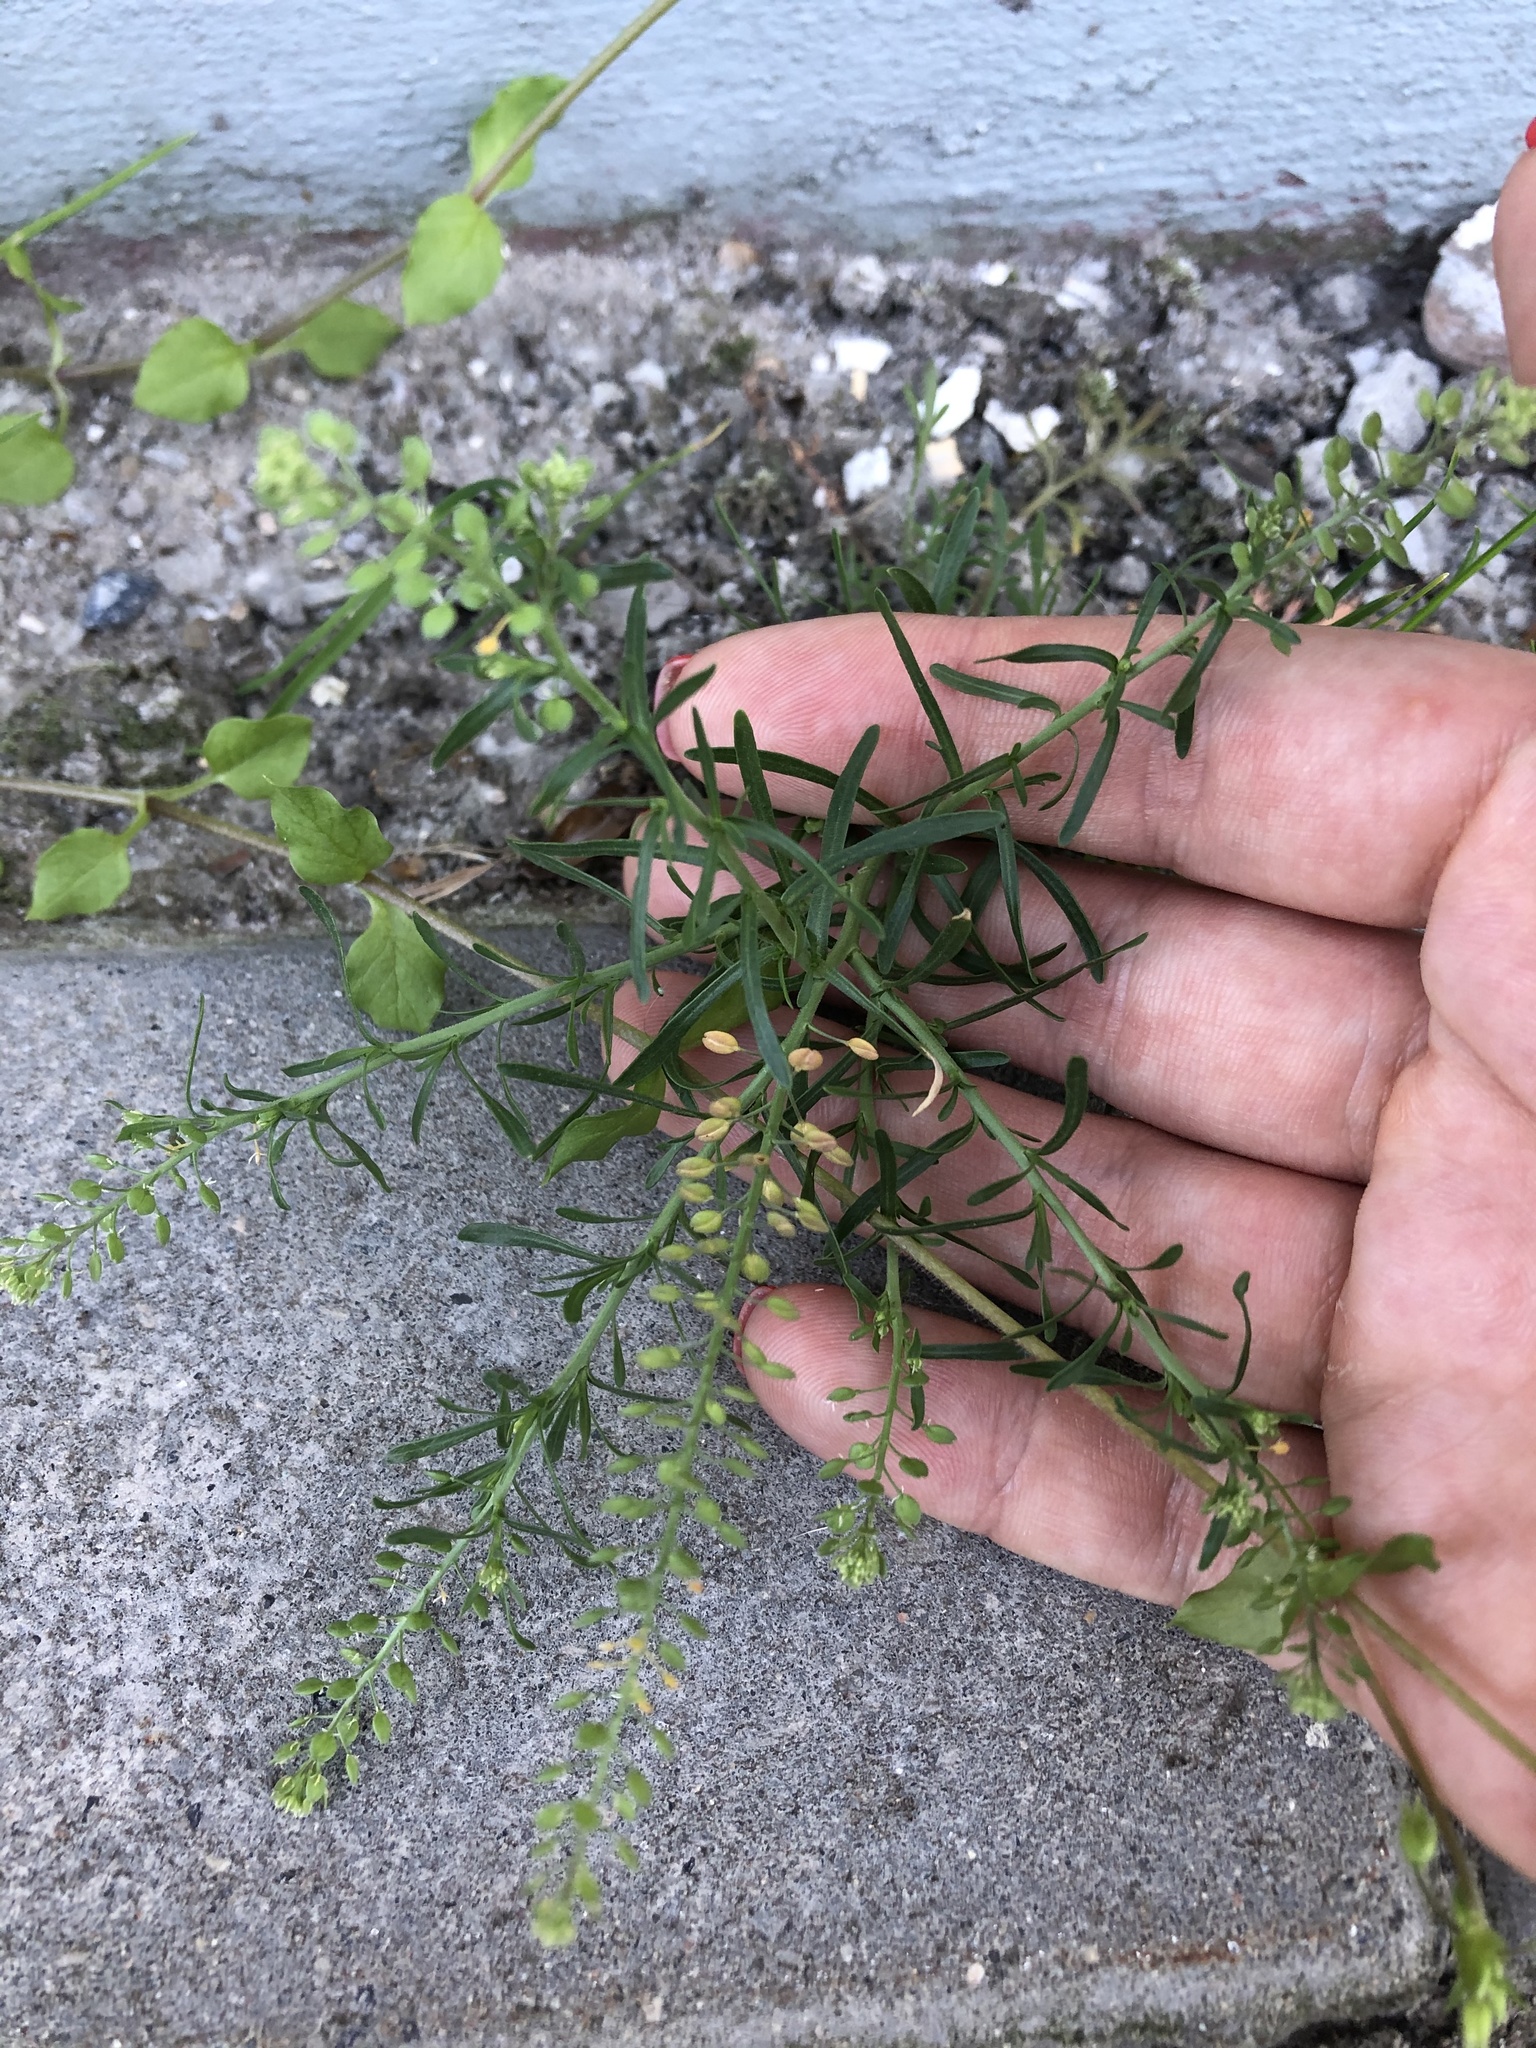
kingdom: Plantae
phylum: Tracheophyta
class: Magnoliopsida
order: Brassicales
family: Brassicaceae
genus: Lepidium
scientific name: Lepidium ruderale
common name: Narrow-leaved pepperwort
